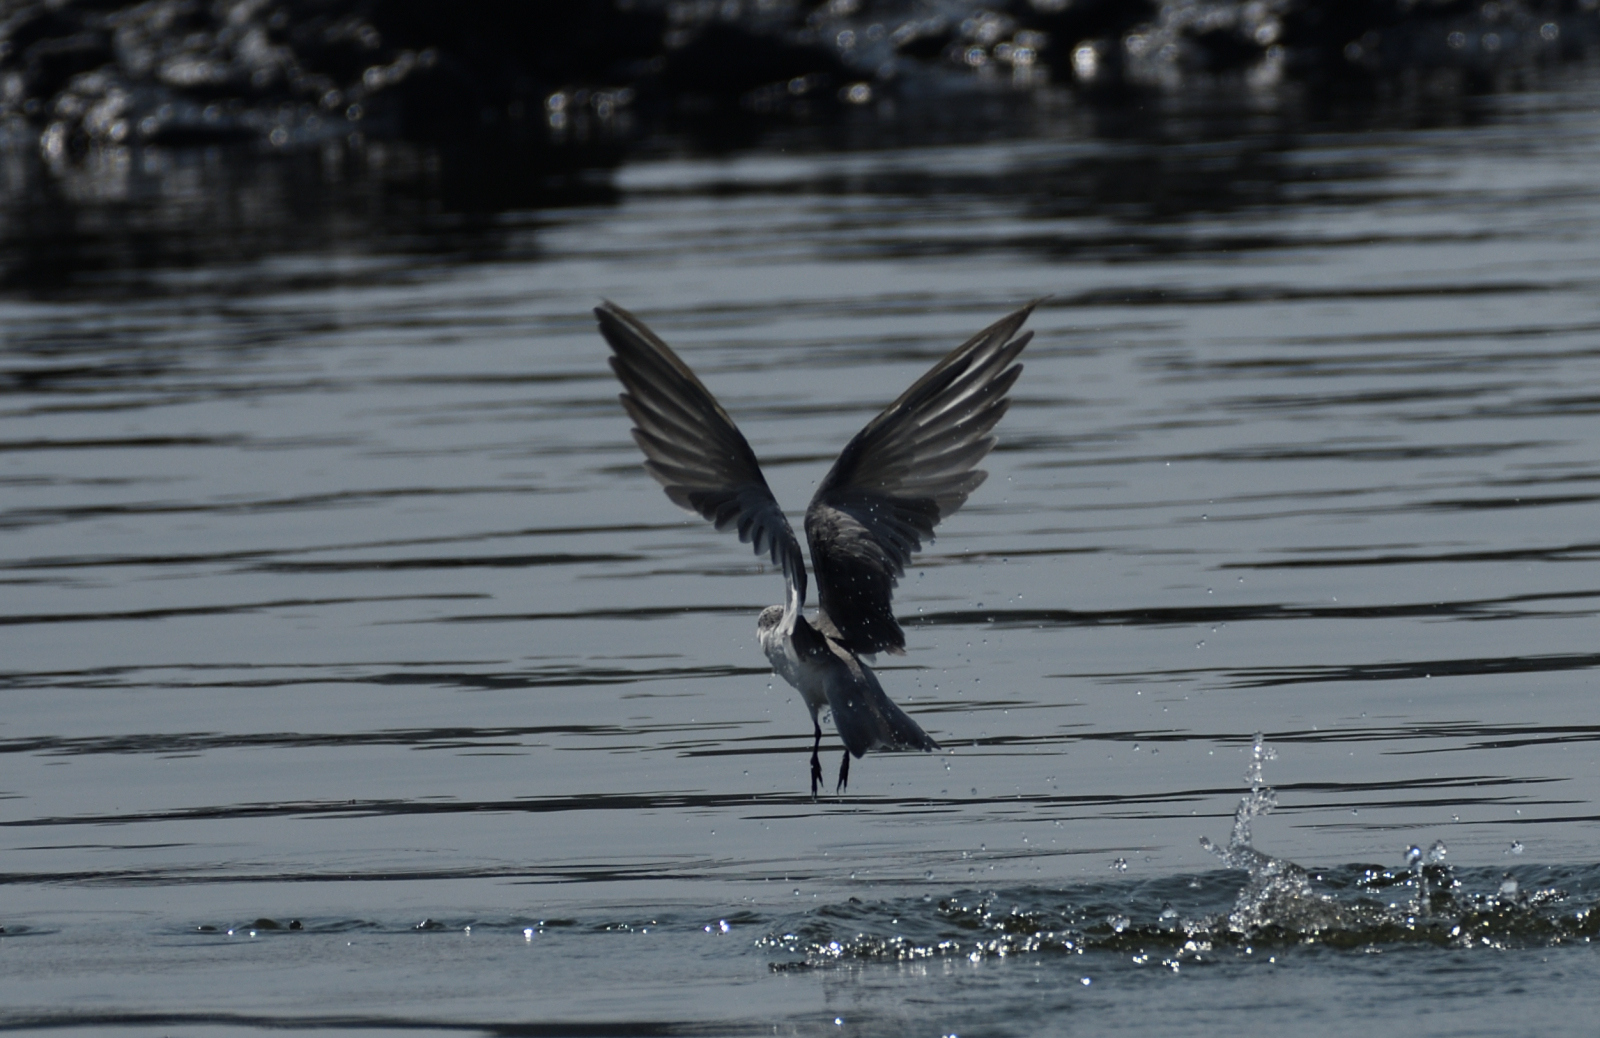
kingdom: Animalia
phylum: Chordata
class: Aves
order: Charadriiformes
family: Laridae
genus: Chlidonias
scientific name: Chlidonias hybrida
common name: Whiskered tern
